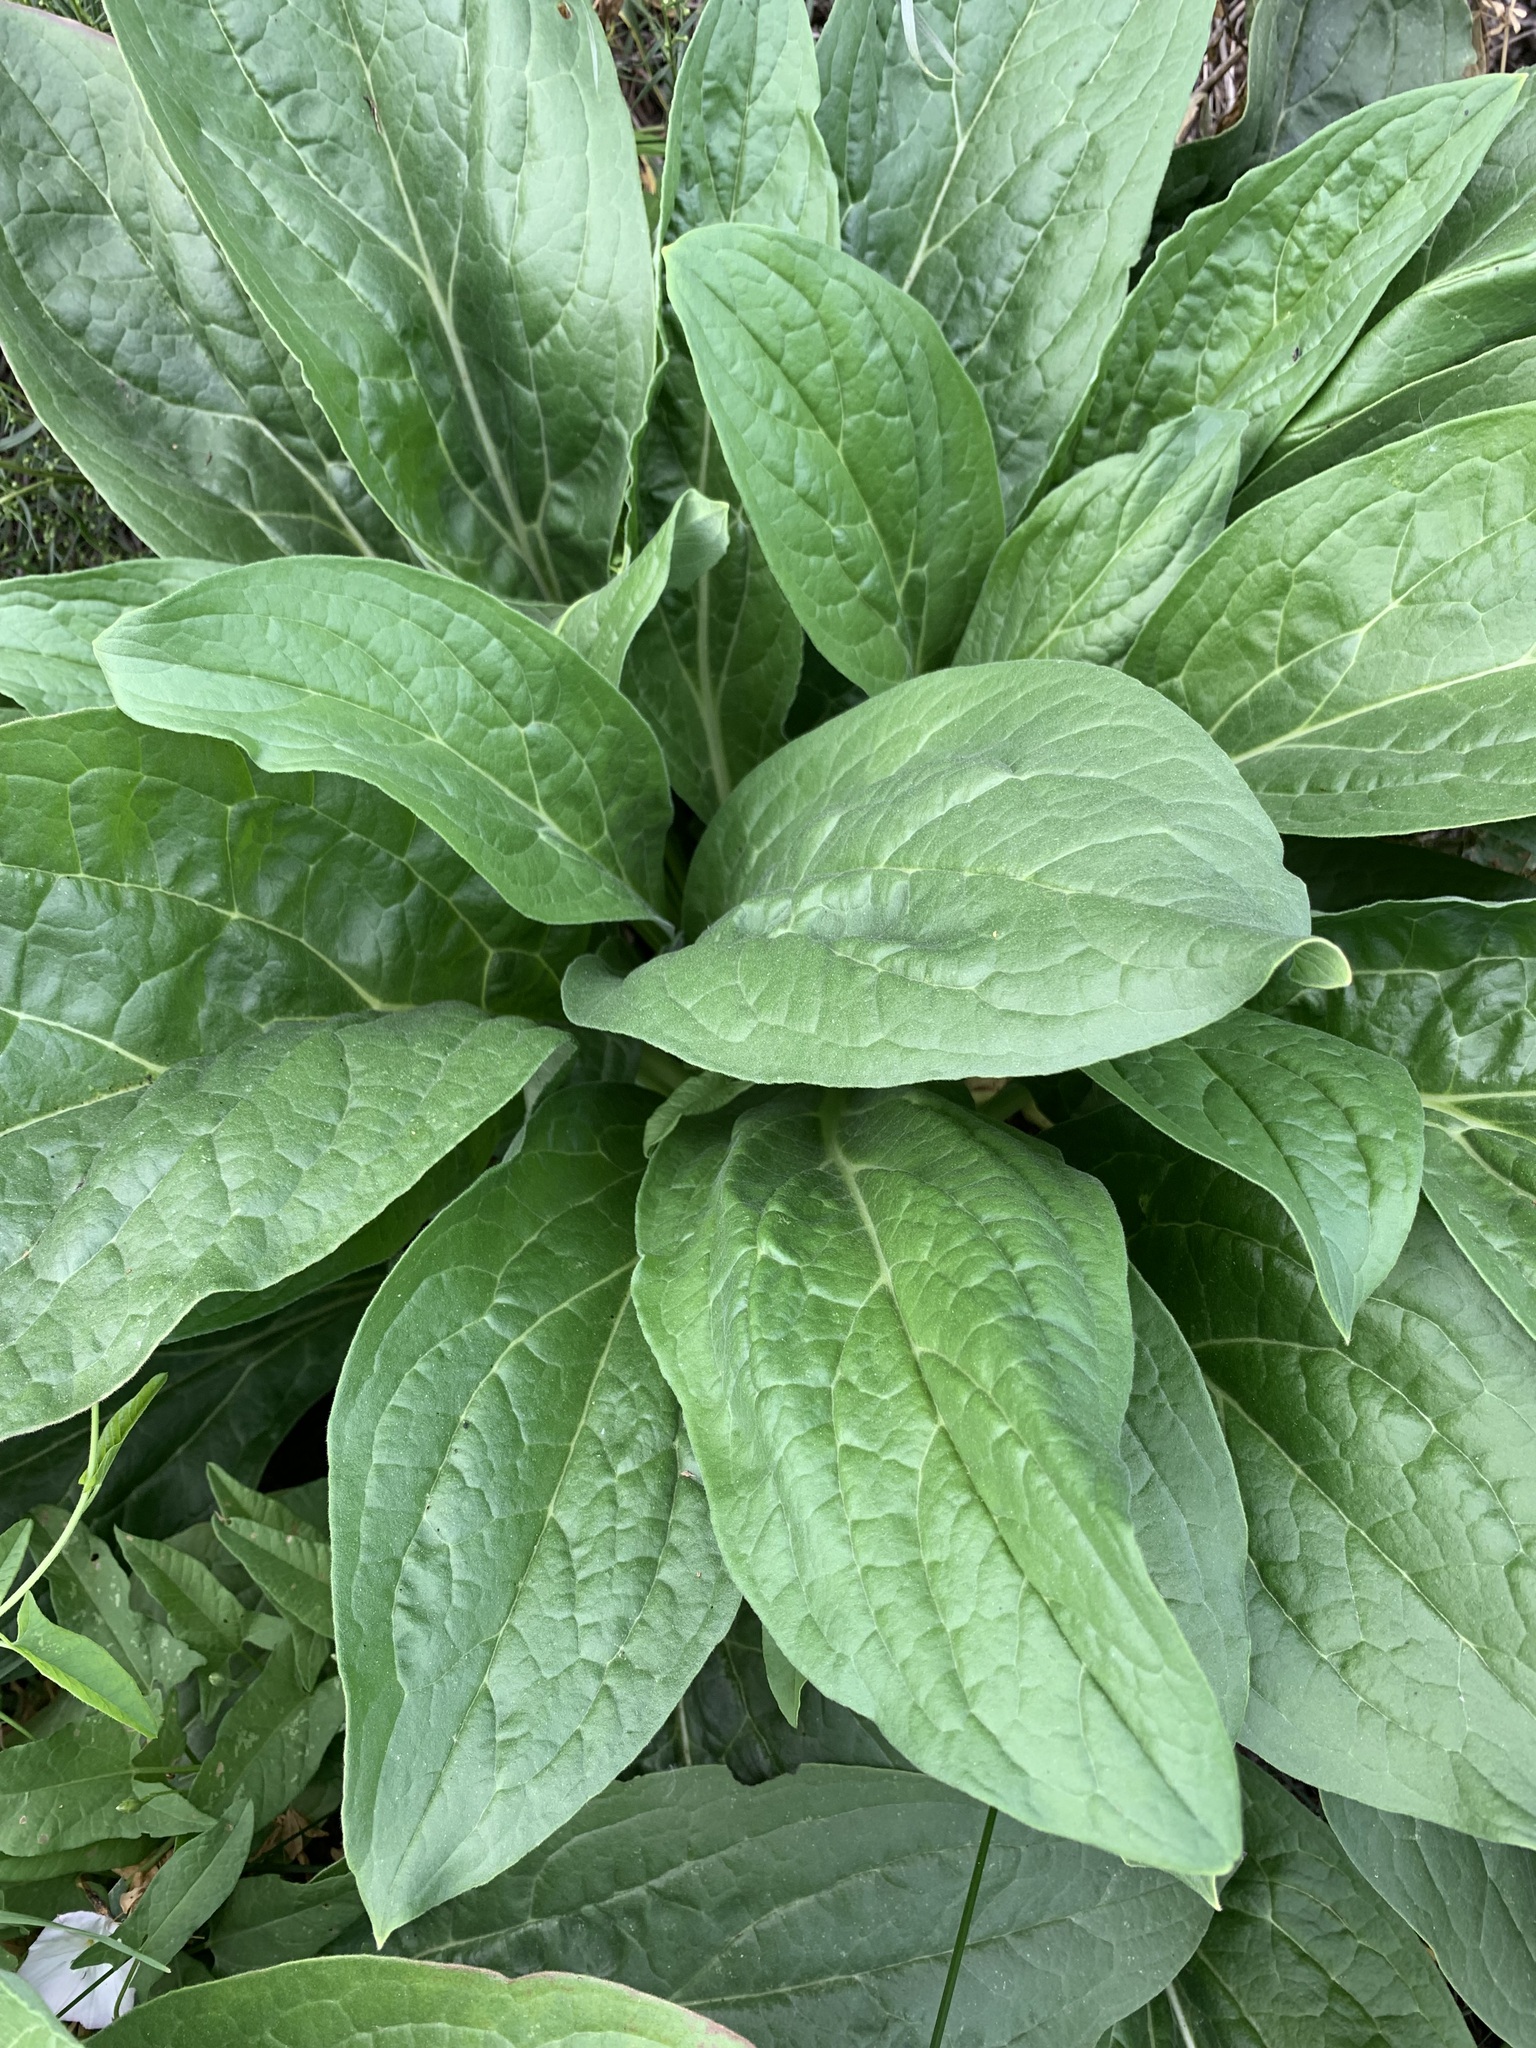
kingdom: Plantae
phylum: Tracheophyta
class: Magnoliopsida
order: Boraginales
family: Boraginaceae
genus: Cynoglossum
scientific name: Cynoglossum officinale
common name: Hound's-tongue
